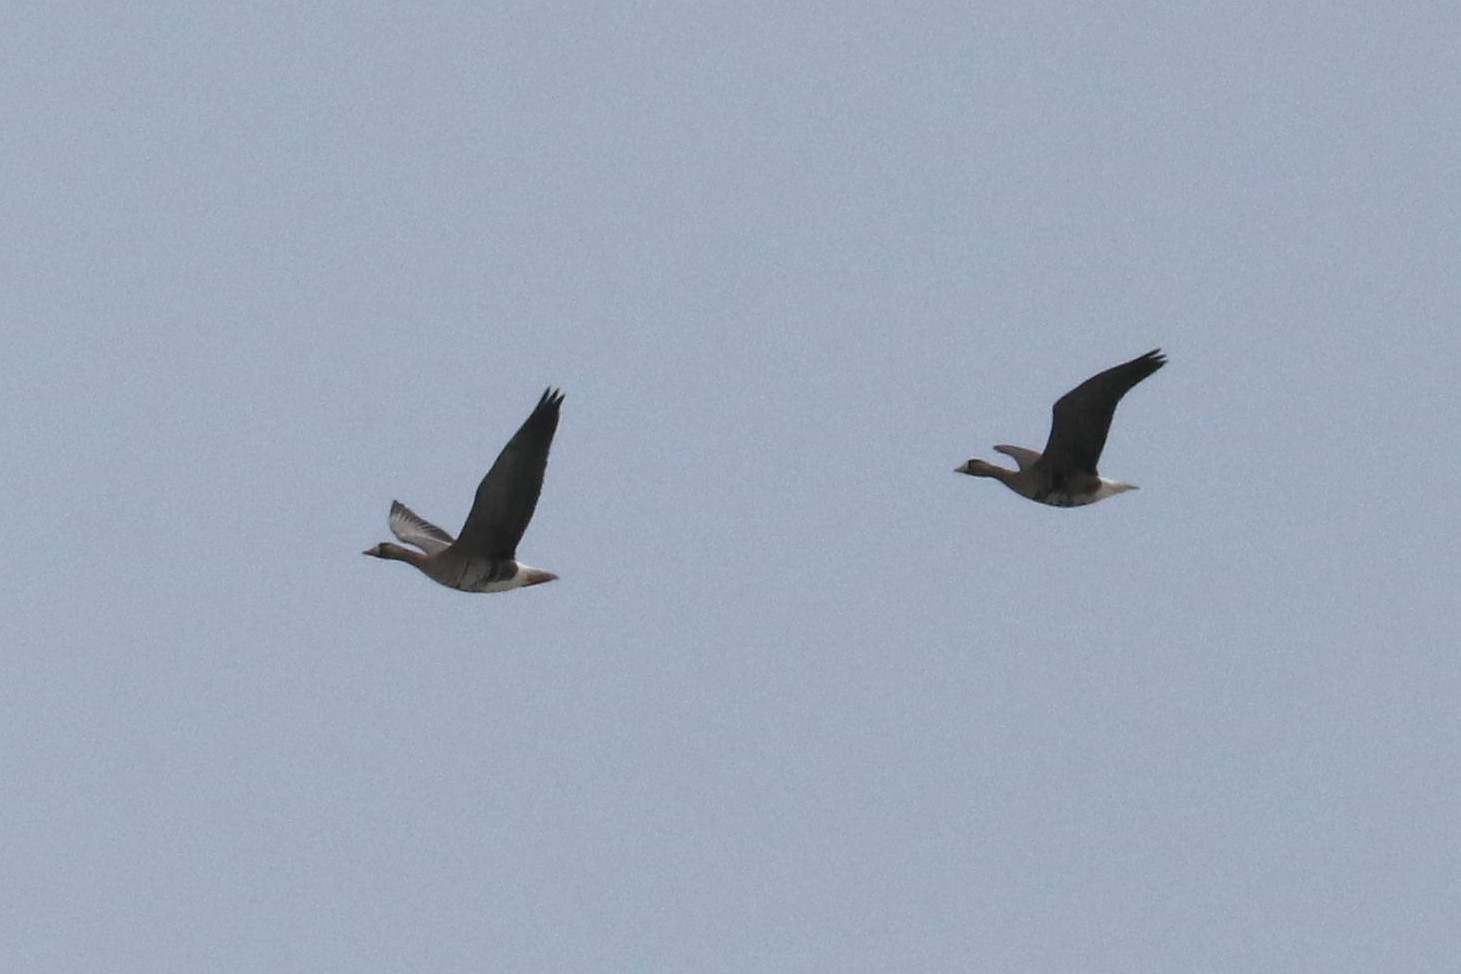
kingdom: Animalia
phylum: Chordata
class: Aves
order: Anseriformes
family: Anatidae
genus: Anser
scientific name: Anser albifrons
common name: Greater white-fronted goose
